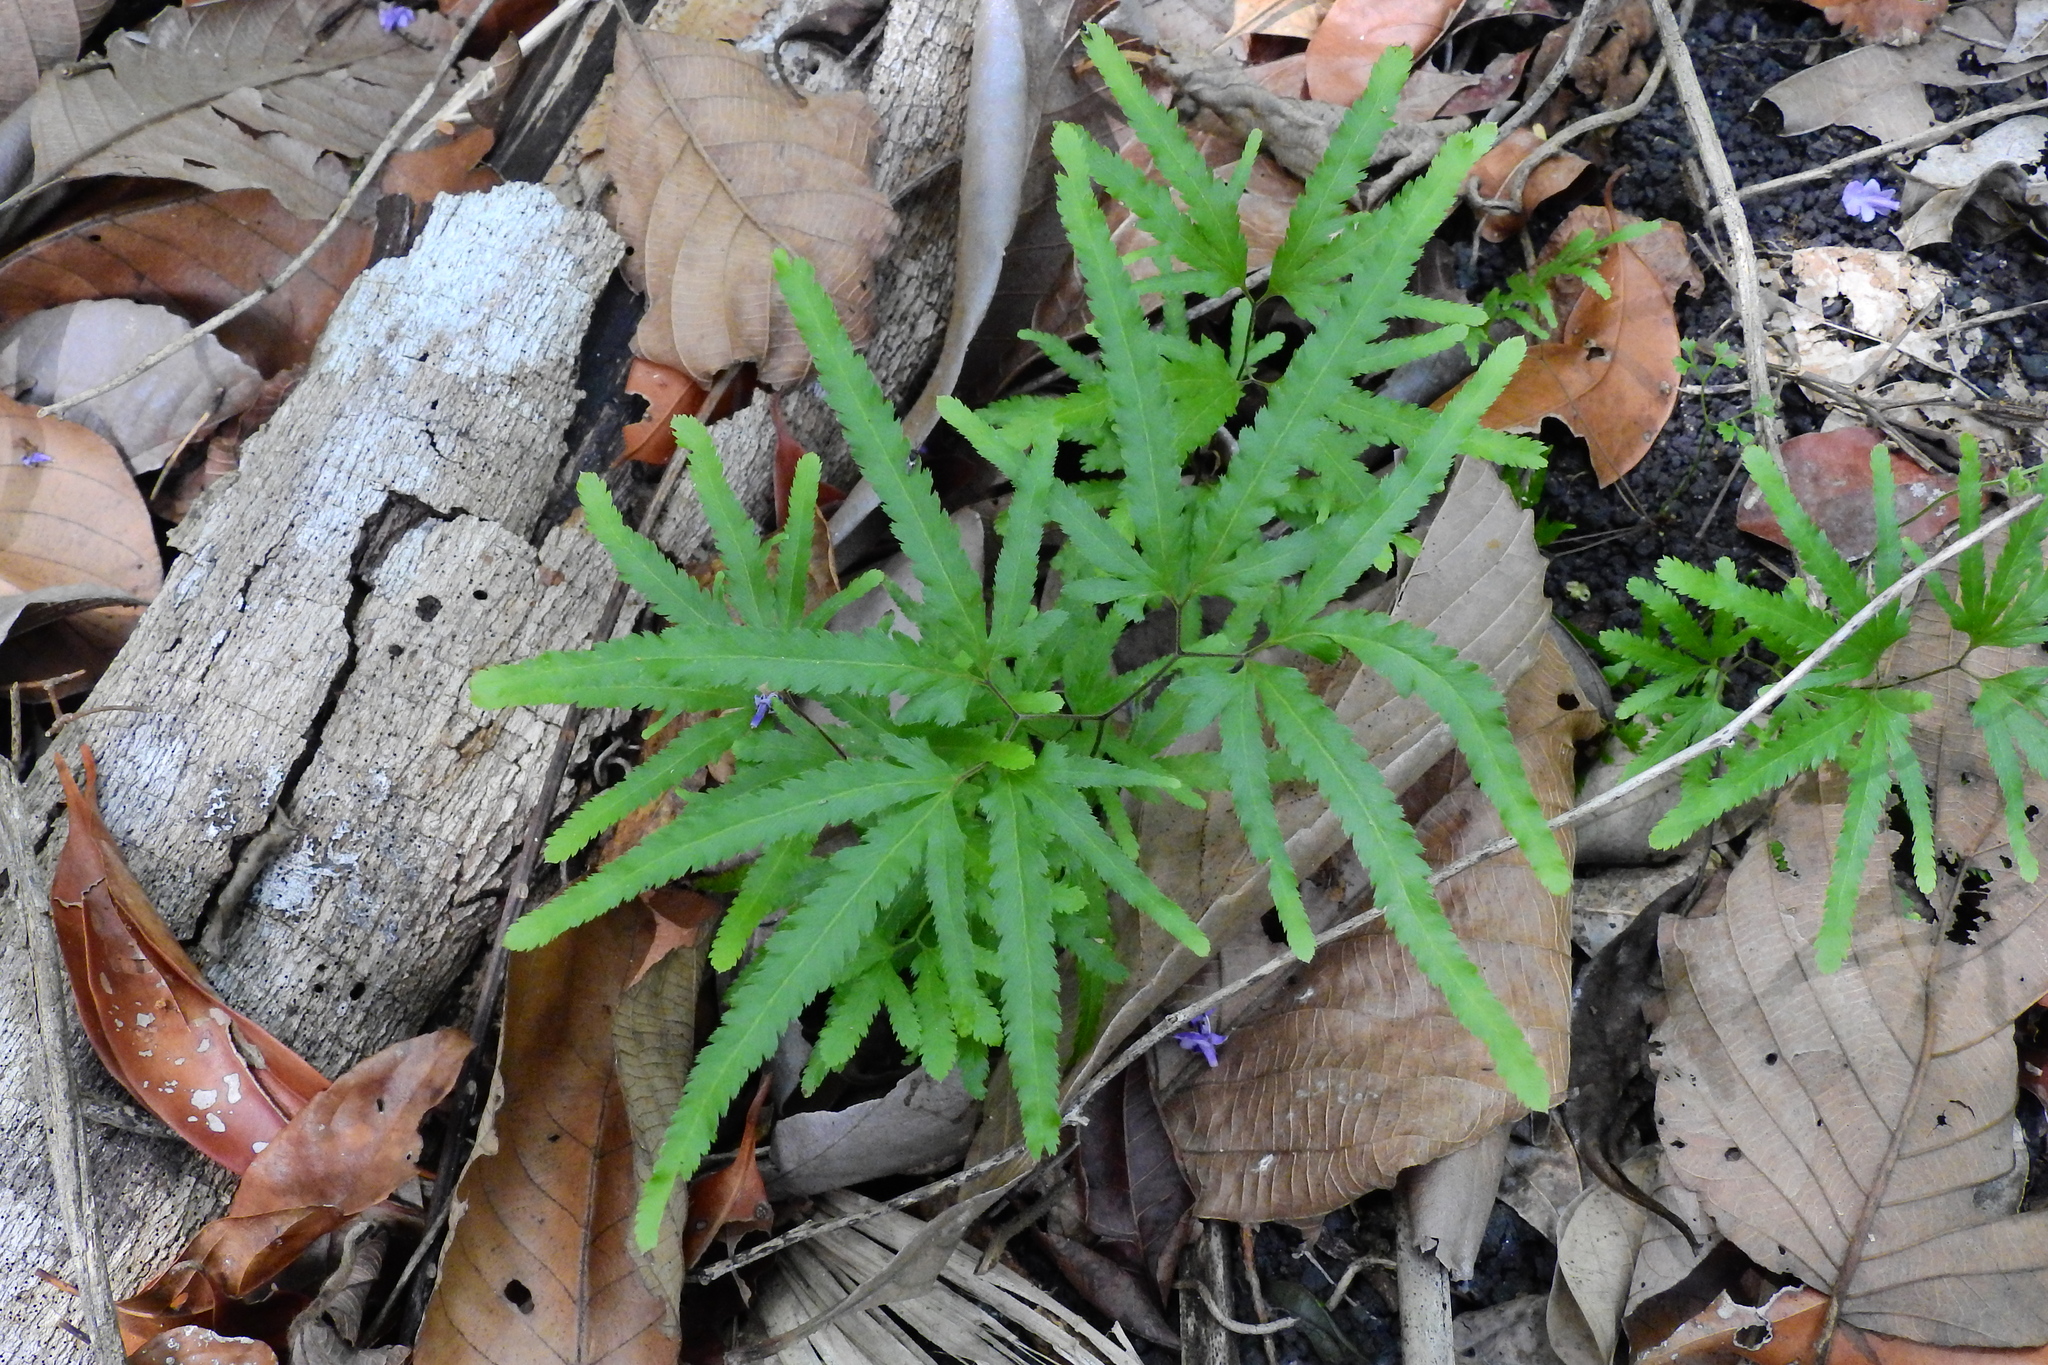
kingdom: Plantae
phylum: Tracheophyta
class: Polypodiopsida
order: Schizaeales
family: Lygodiaceae
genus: Lygodium
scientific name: Lygodium venustum
